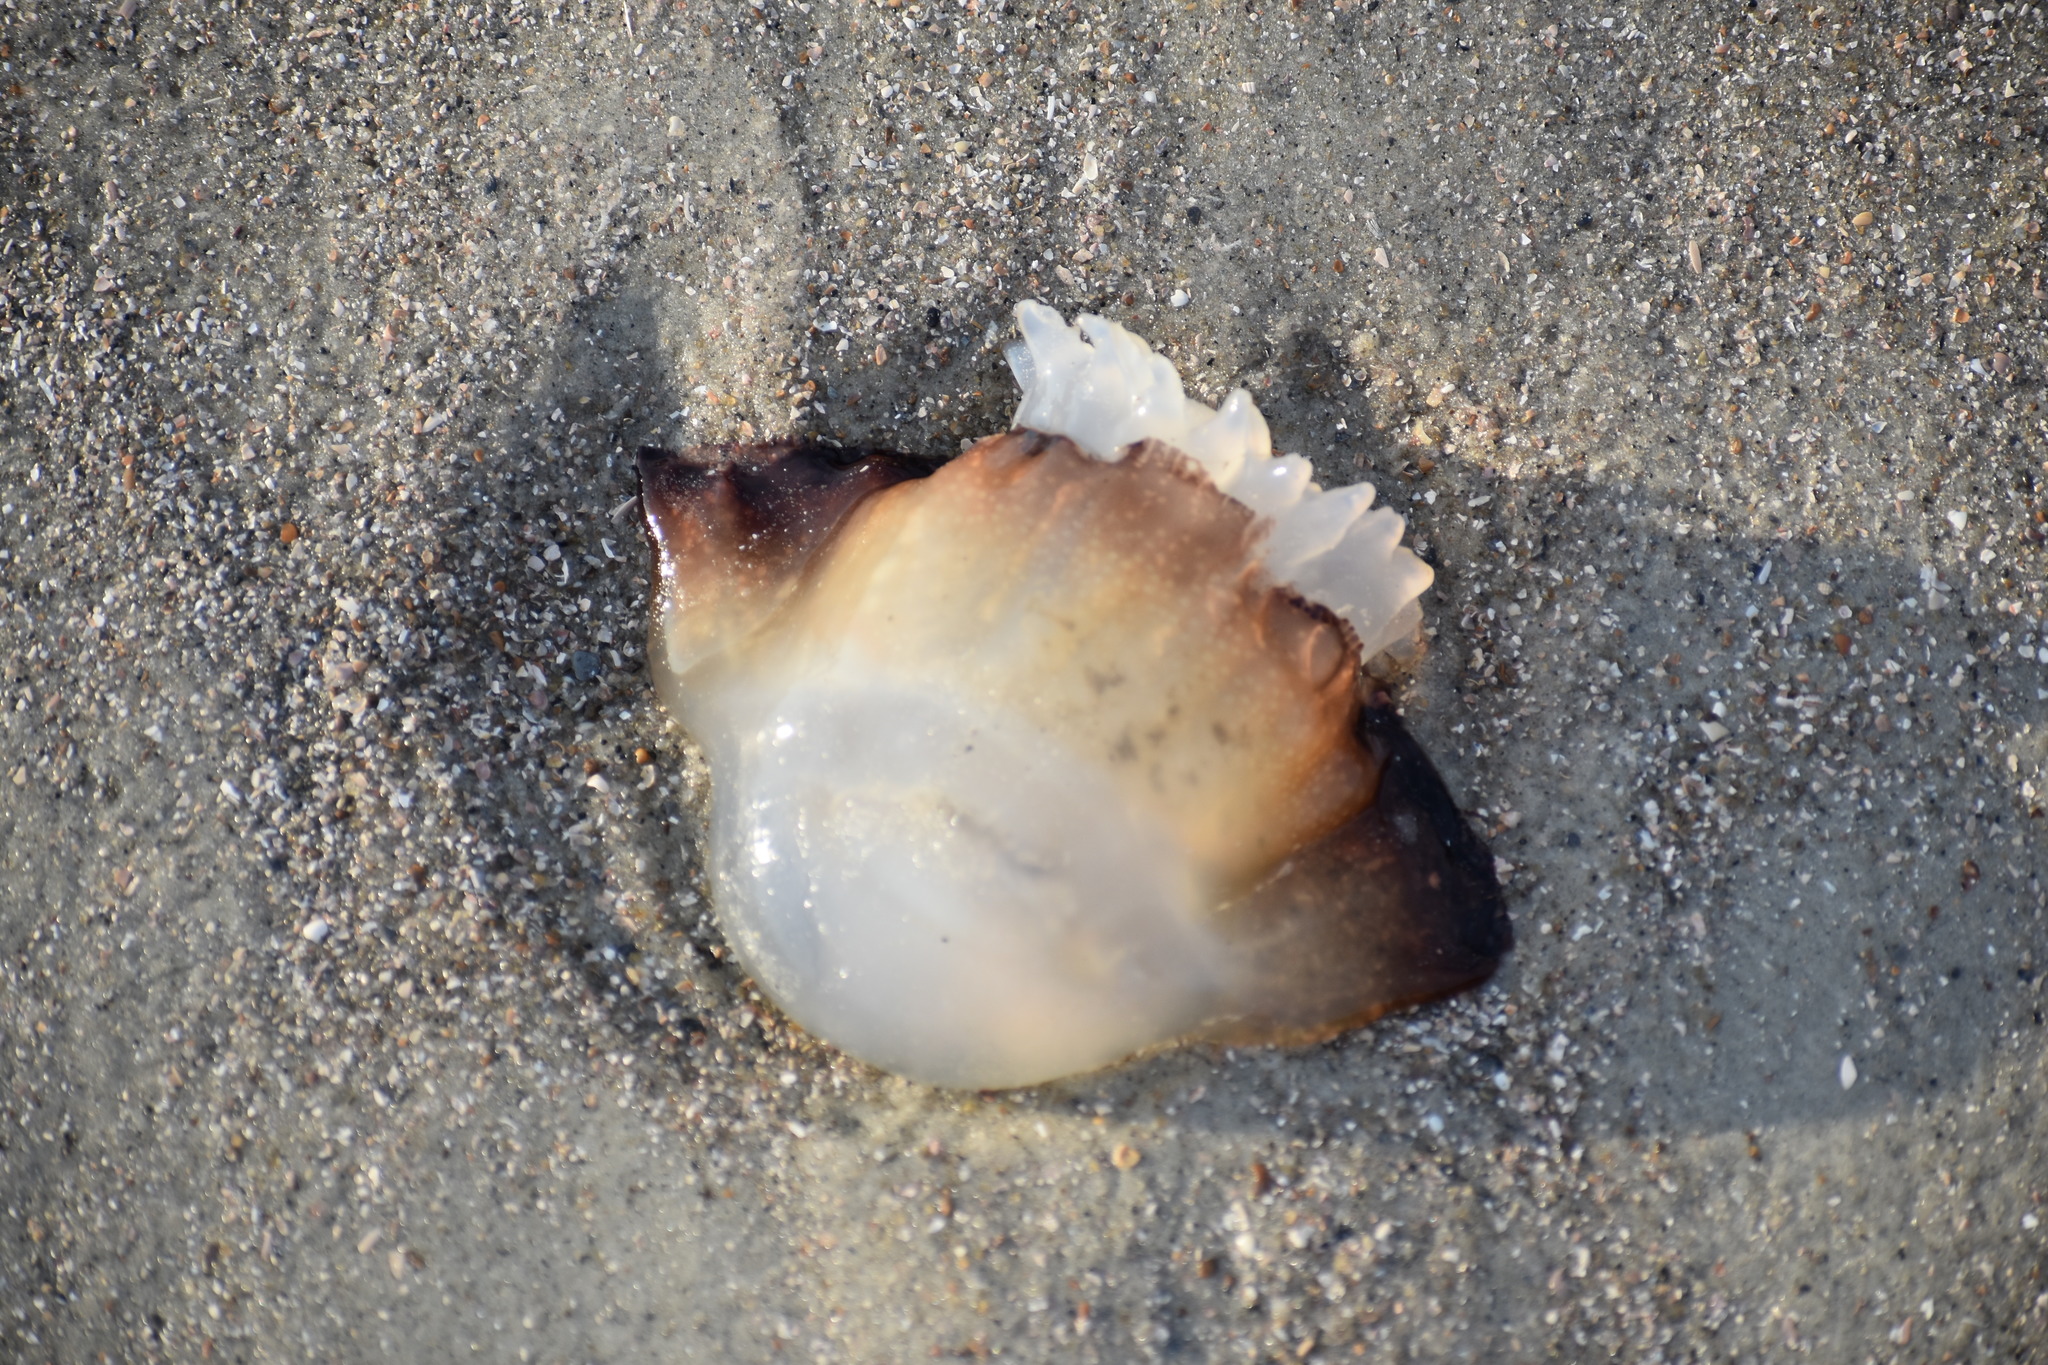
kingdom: Animalia
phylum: Cnidaria
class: Scyphozoa
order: Rhizostomeae
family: Stomolophidae
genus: Stomolophus
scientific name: Stomolophus meleagris
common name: Cabbagehead
